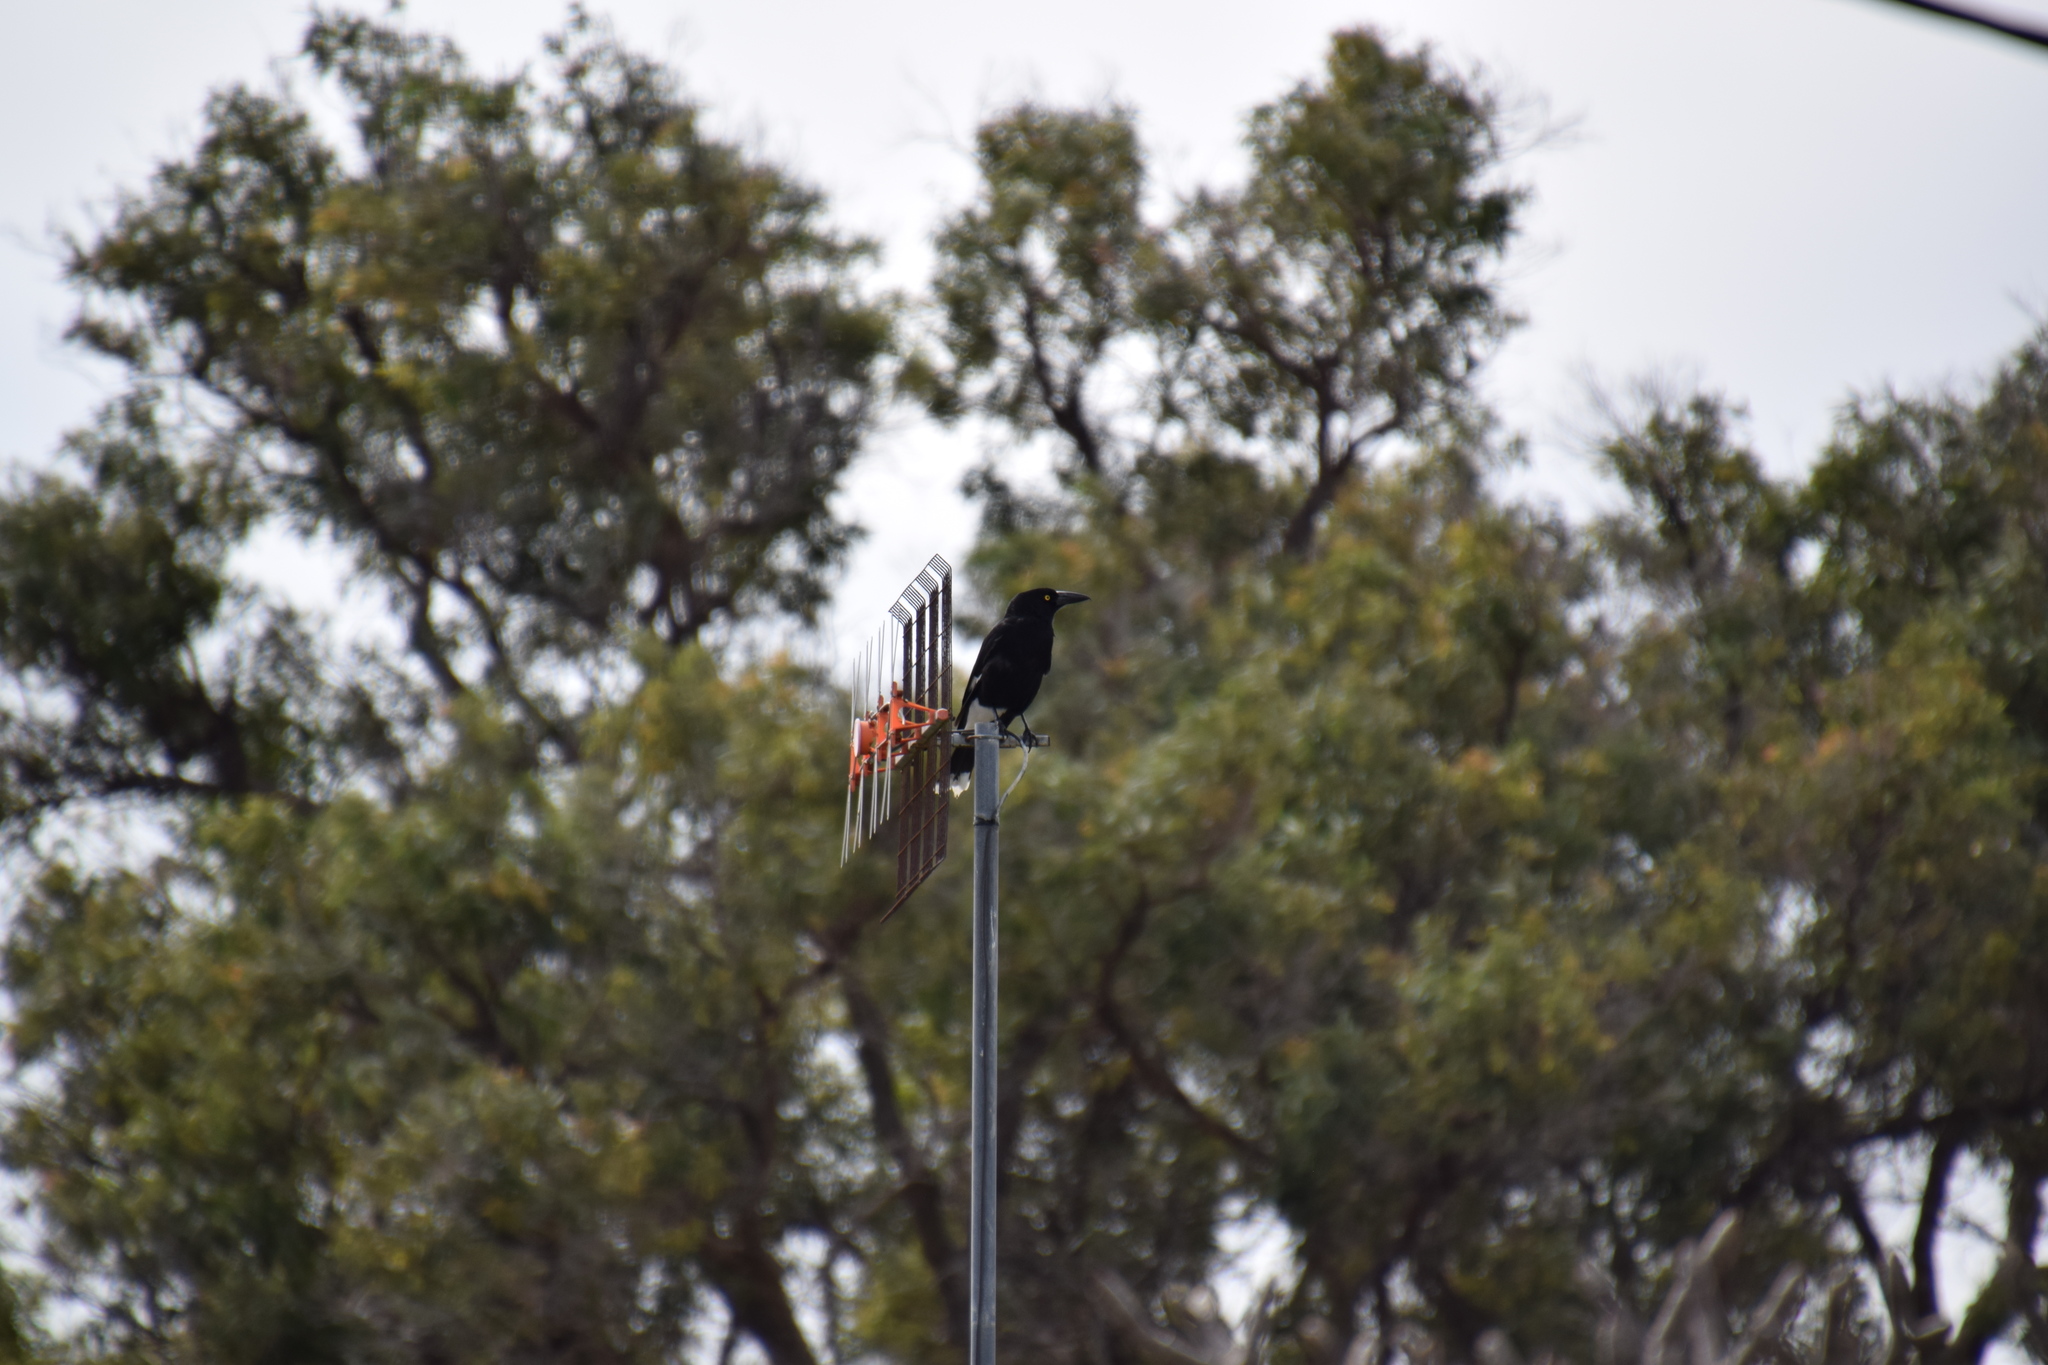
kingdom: Animalia
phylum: Chordata
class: Aves
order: Passeriformes
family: Cracticidae
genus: Strepera
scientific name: Strepera graculina
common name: Pied currawong
